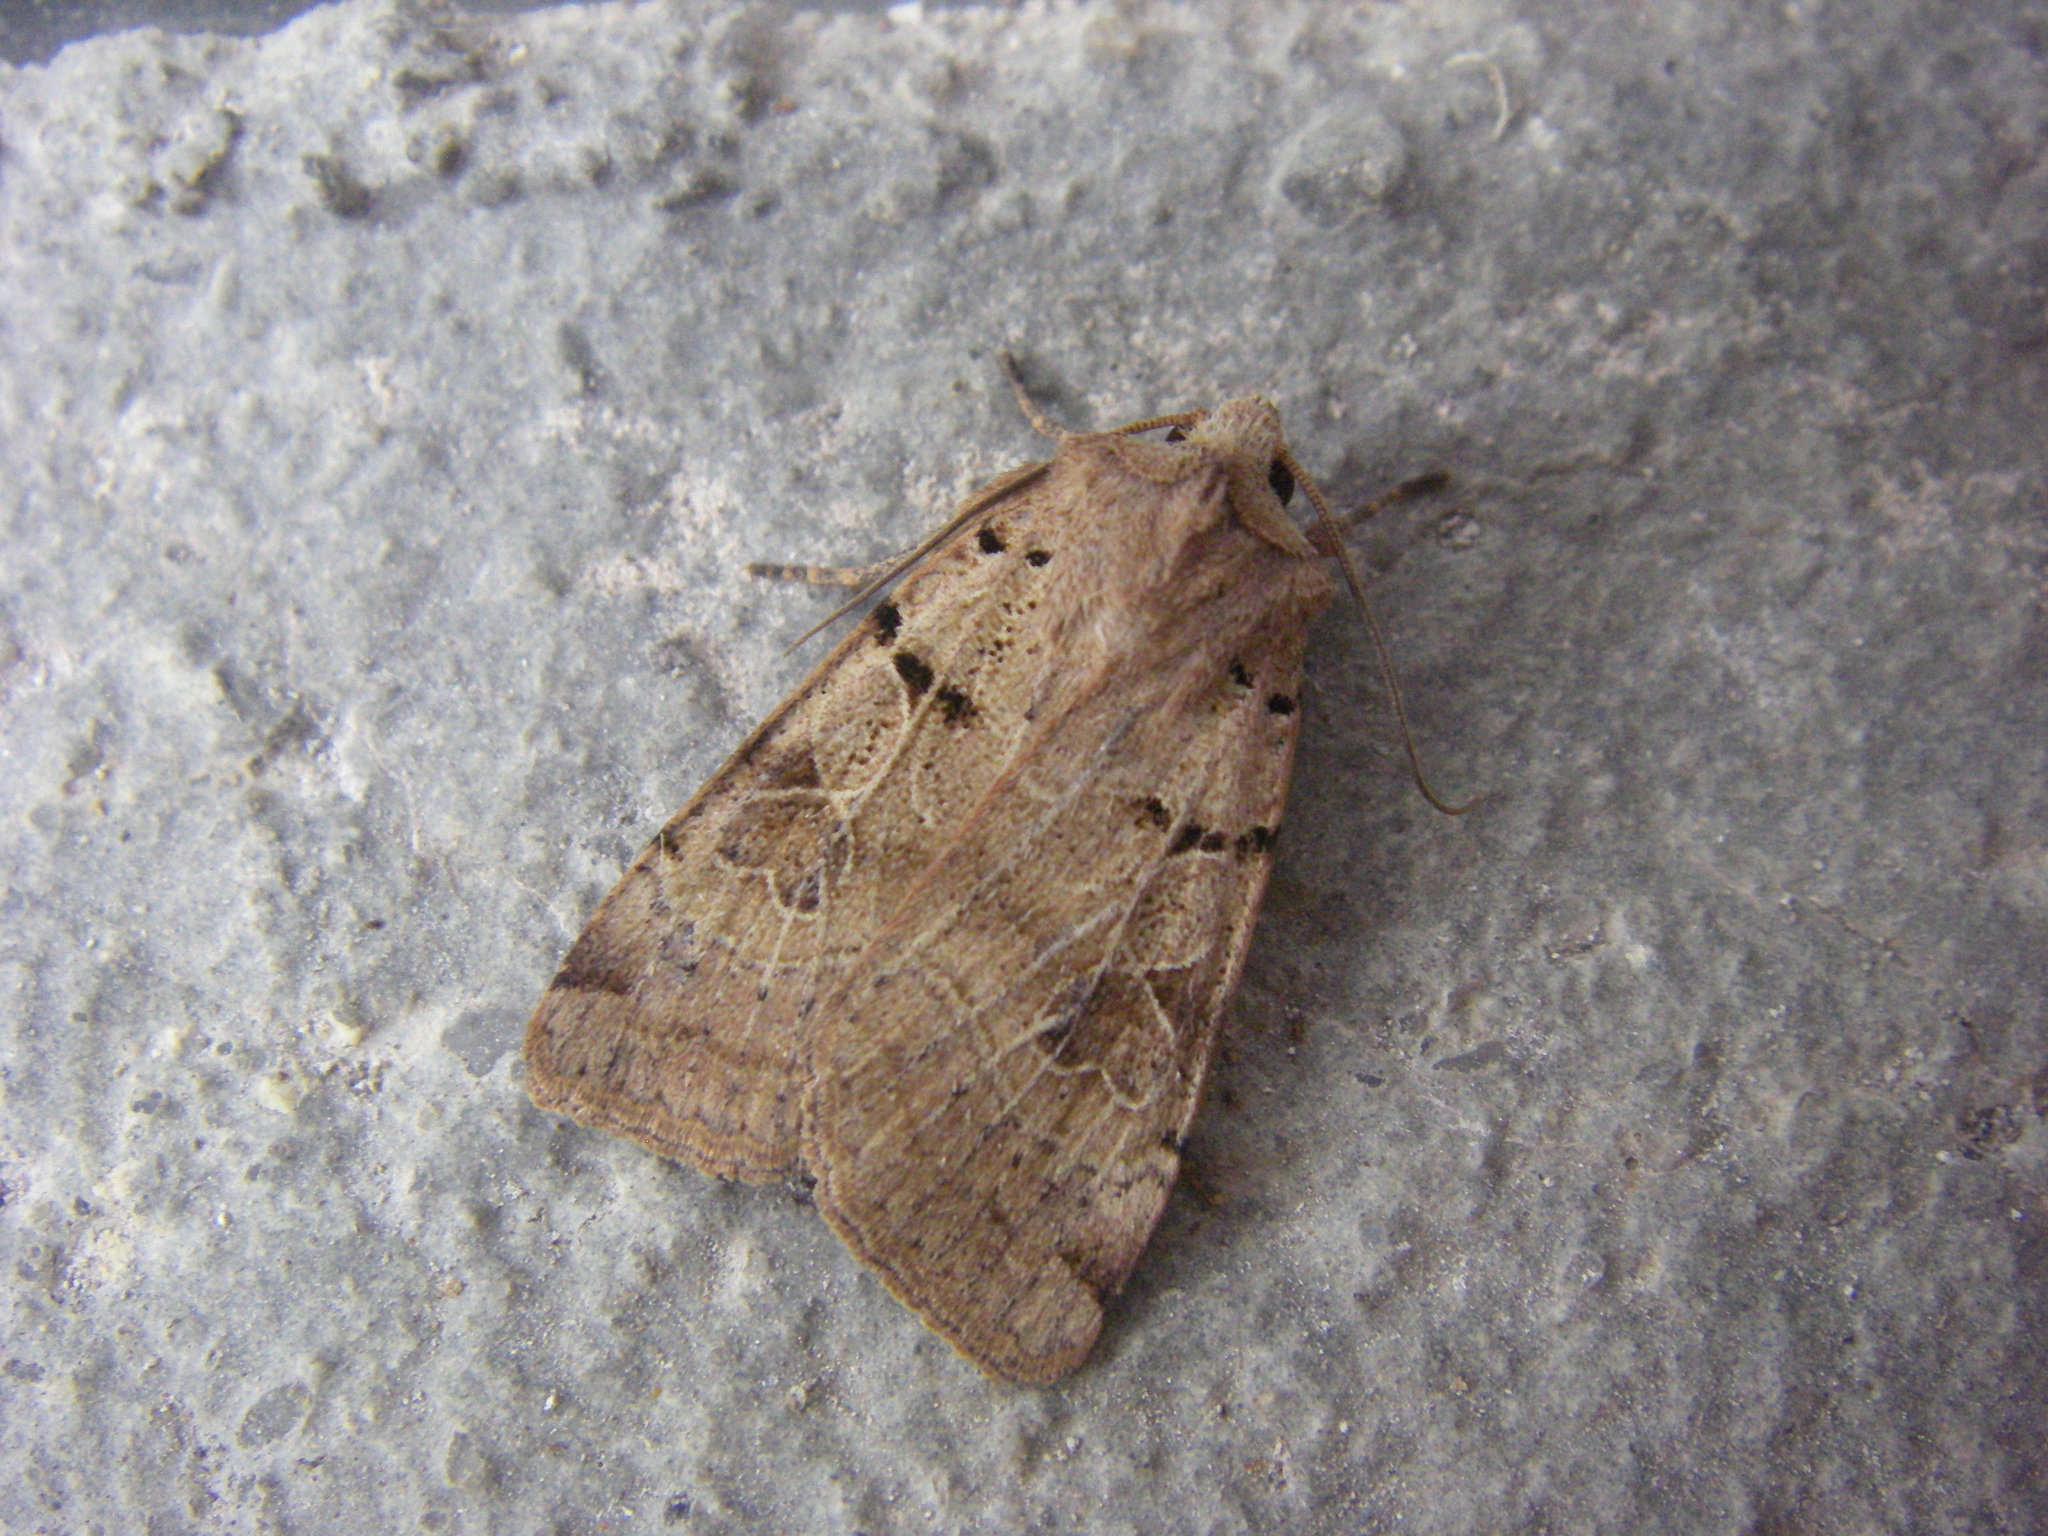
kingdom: Animalia
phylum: Arthropoda
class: Insecta
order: Lepidoptera
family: Noctuidae
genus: Eugnorisma
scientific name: Eugnorisma depuncta
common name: Plain clay
